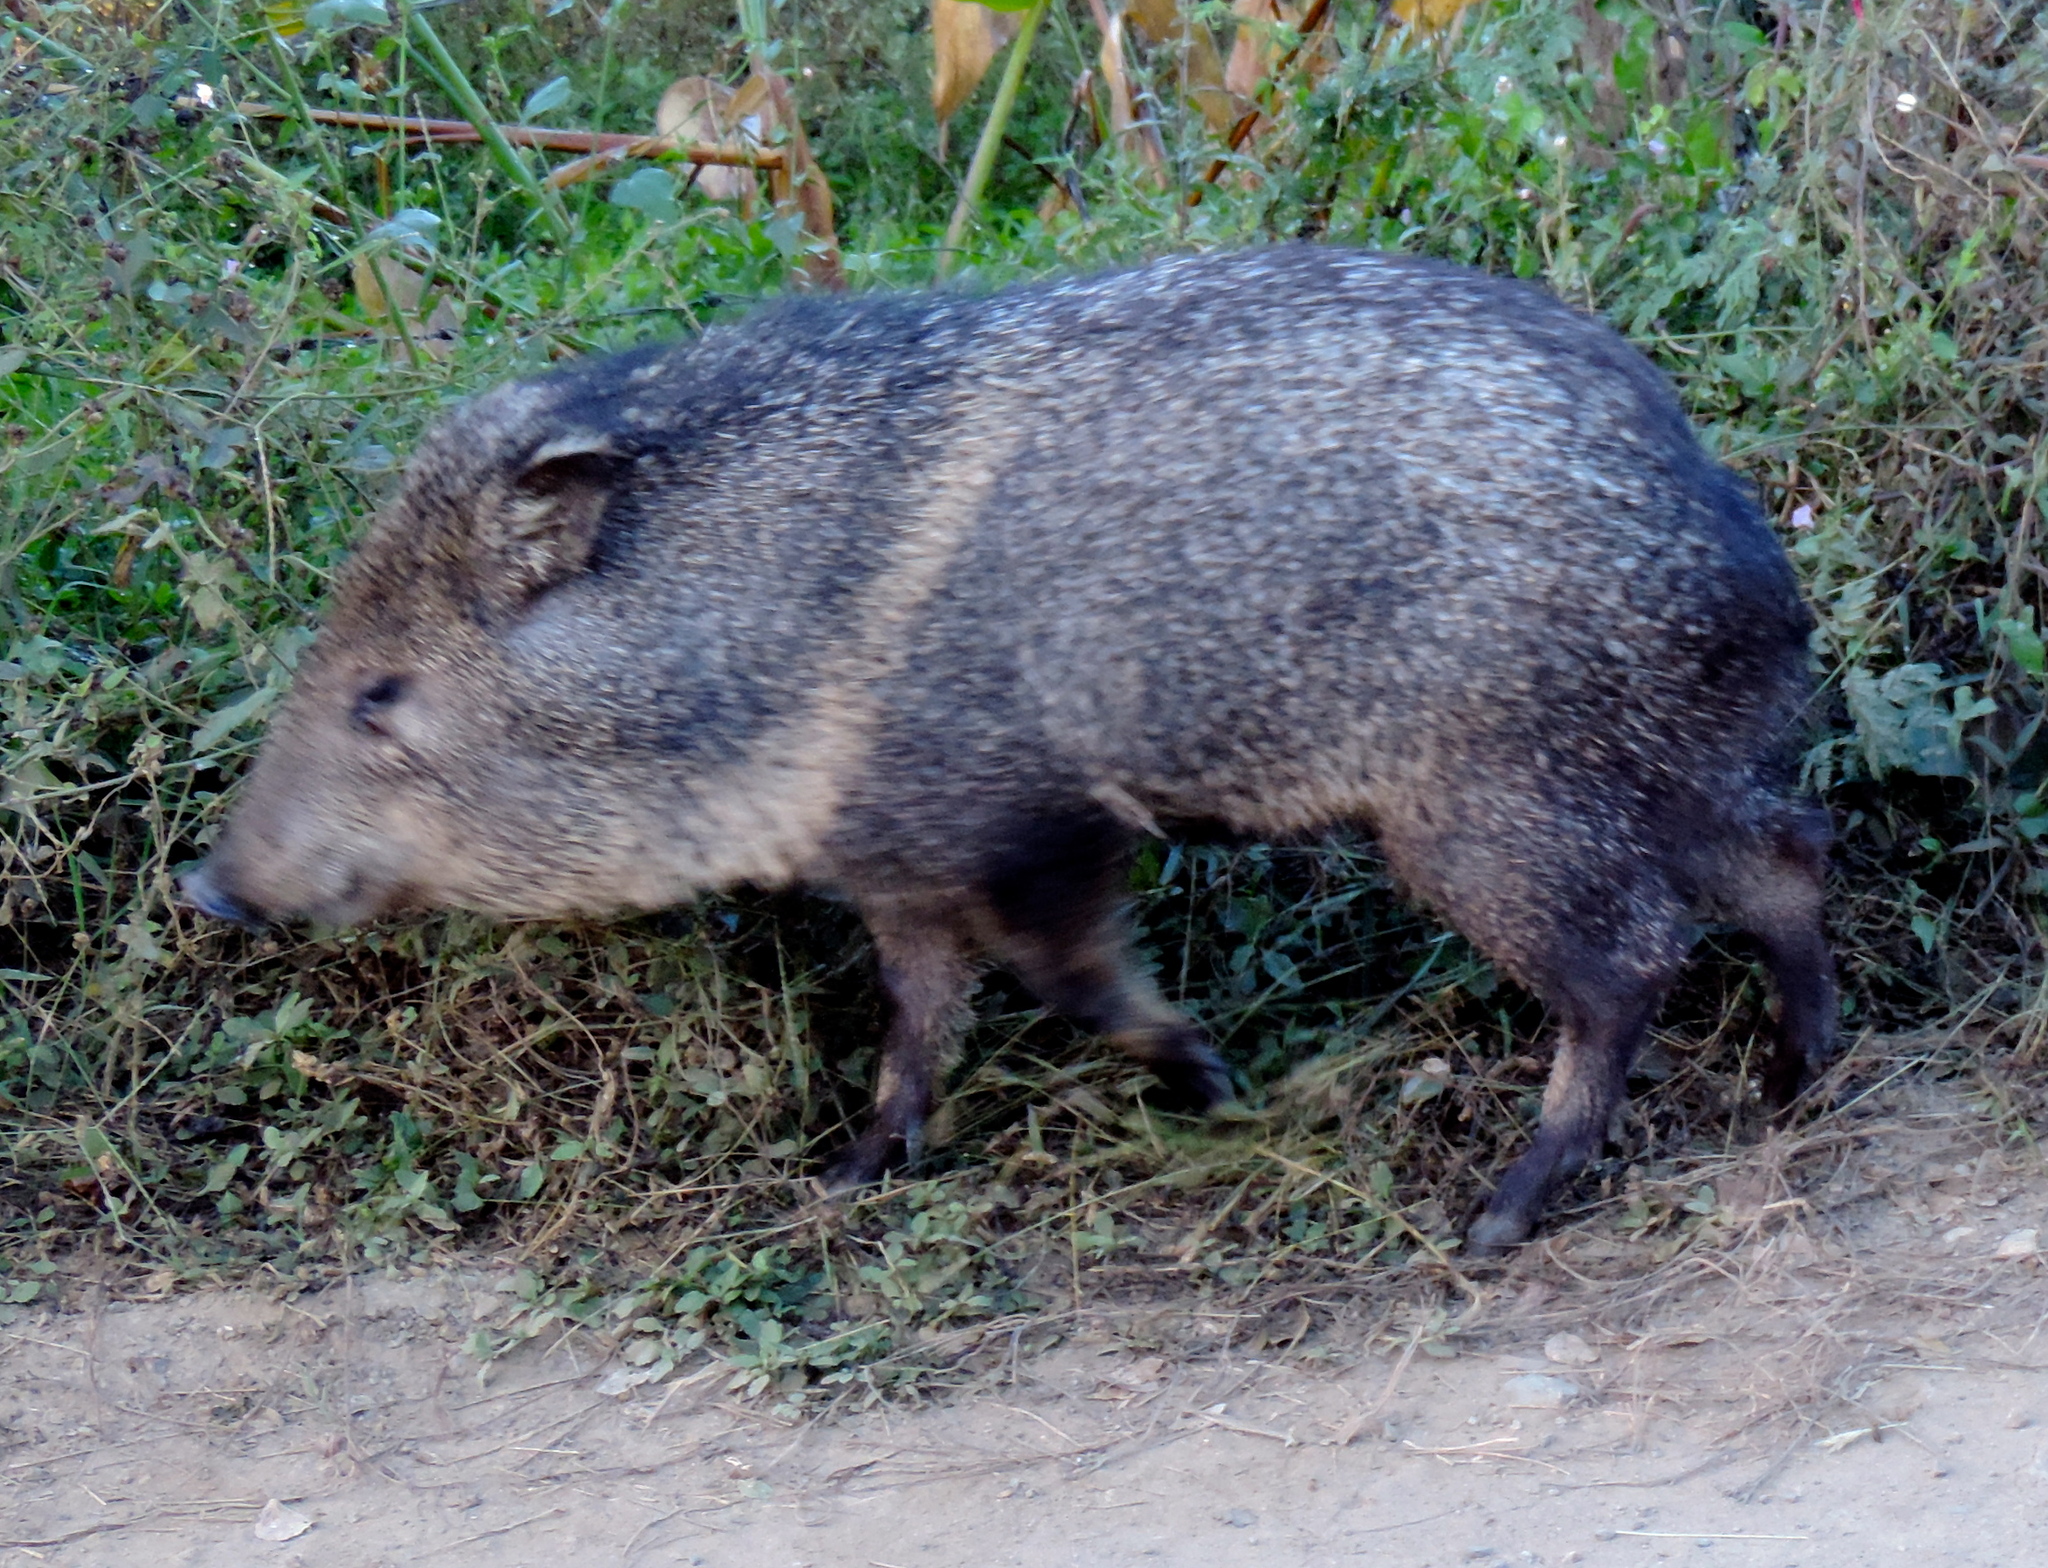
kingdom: Animalia
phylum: Chordata
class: Mammalia
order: Artiodactyla
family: Tayassuidae
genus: Pecari
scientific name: Pecari tajacu
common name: Collared peccary
